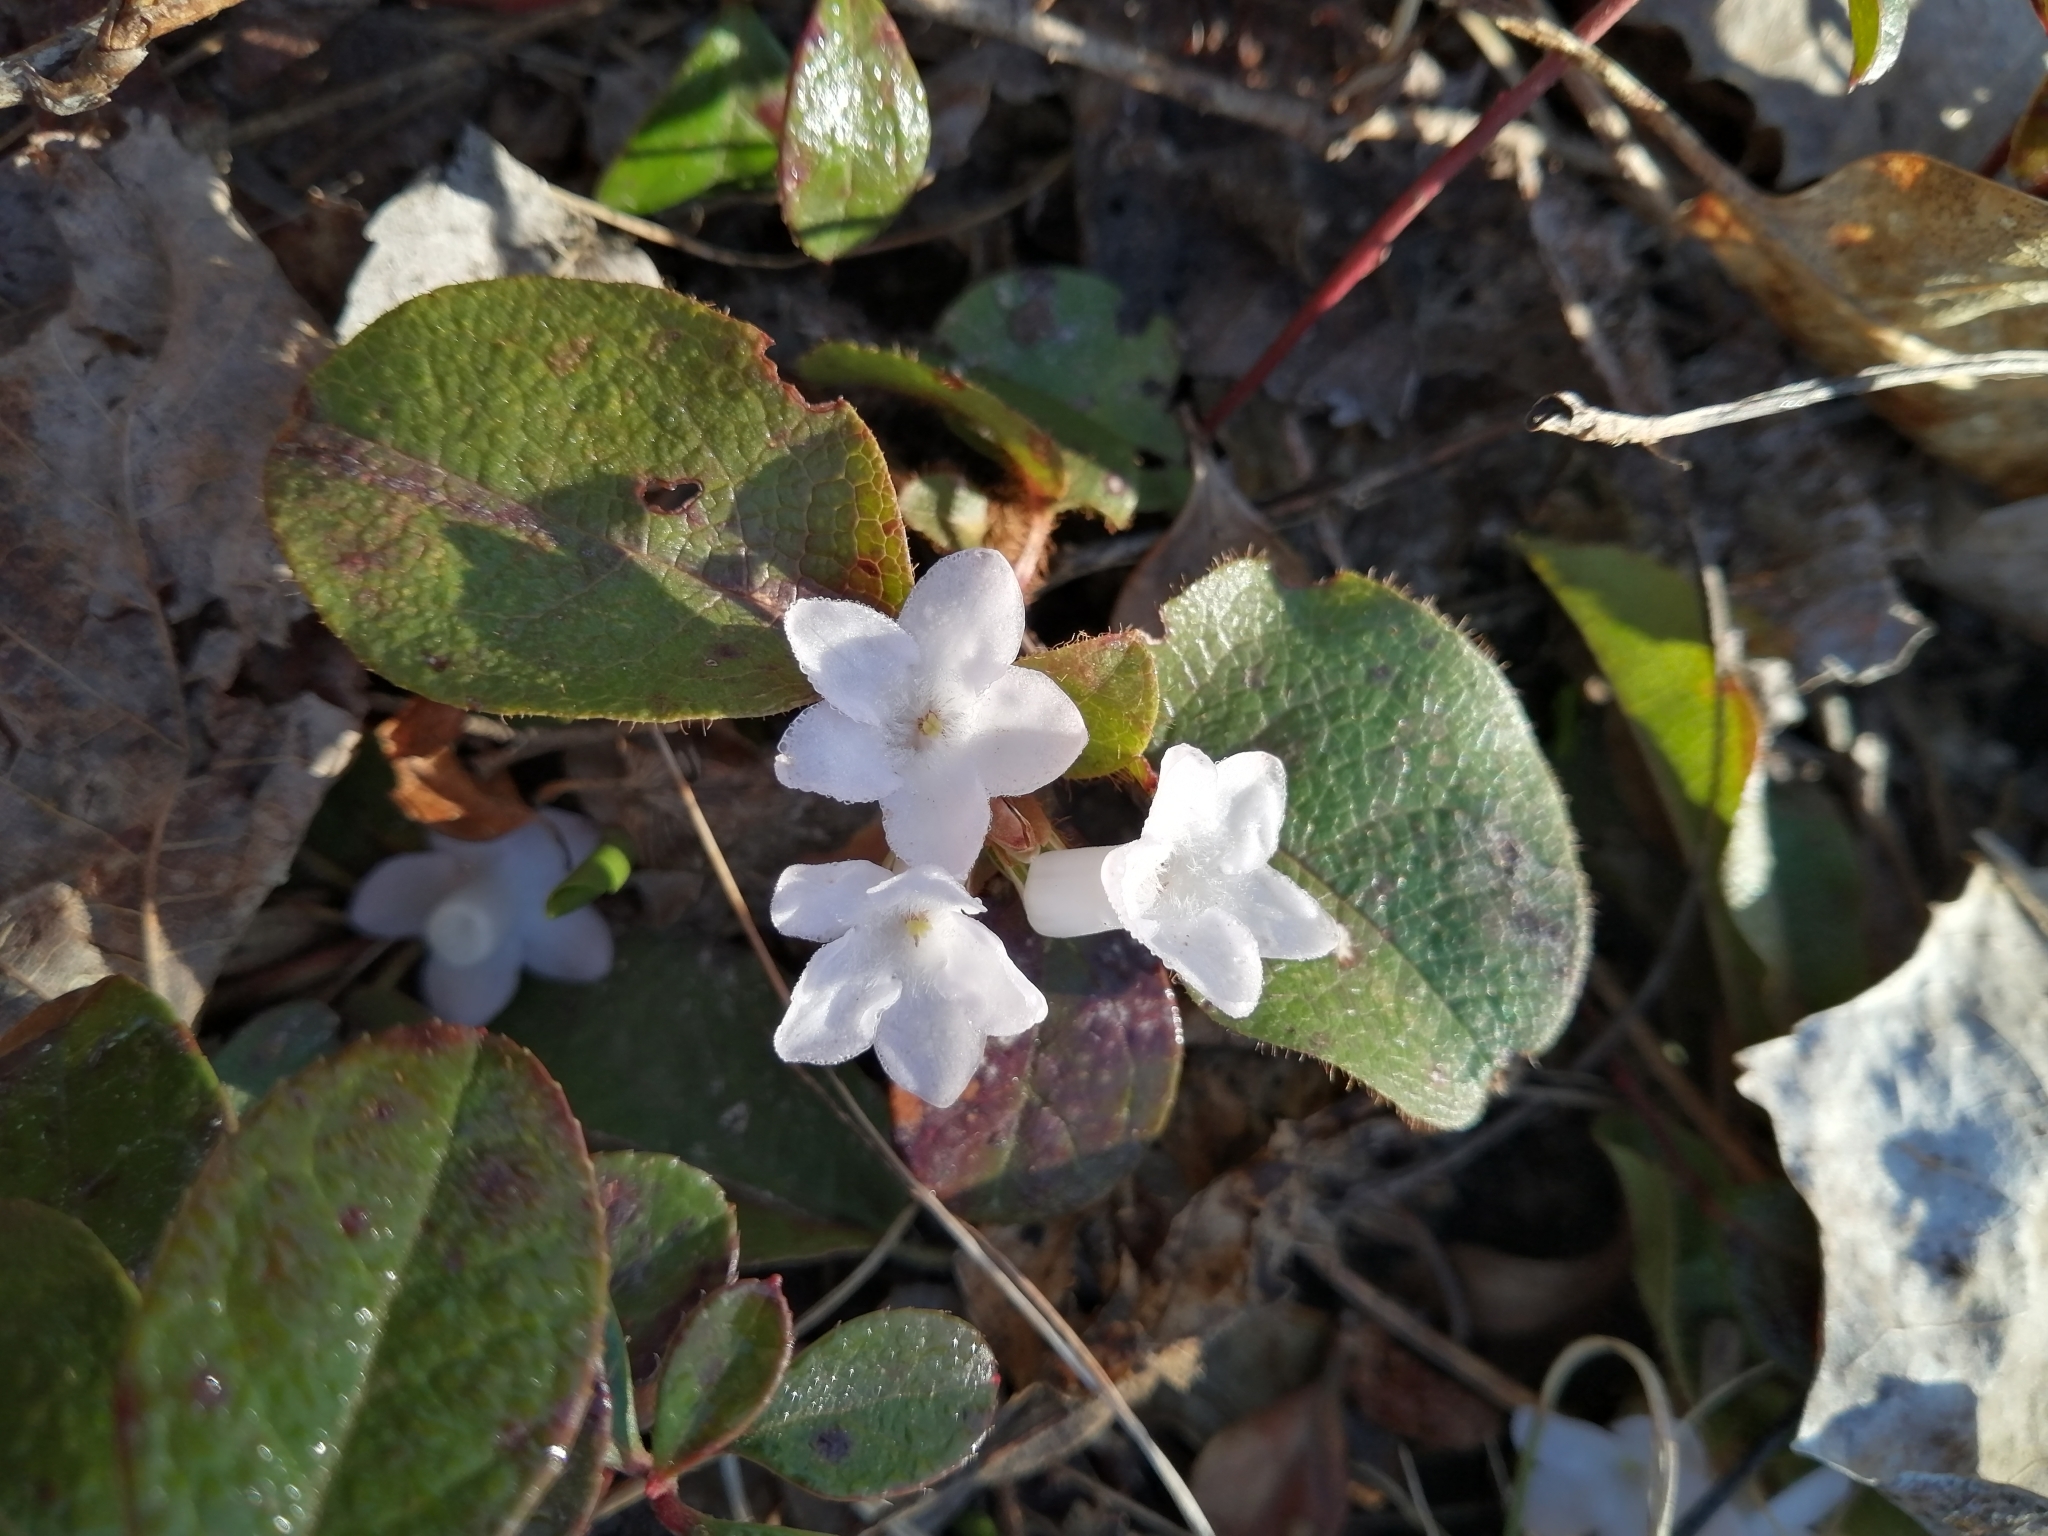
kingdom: Plantae
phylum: Tracheophyta
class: Magnoliopsida
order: Ericales
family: Ericaceae
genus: Epigaea
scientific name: Epigaea repens
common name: Gravelroot
